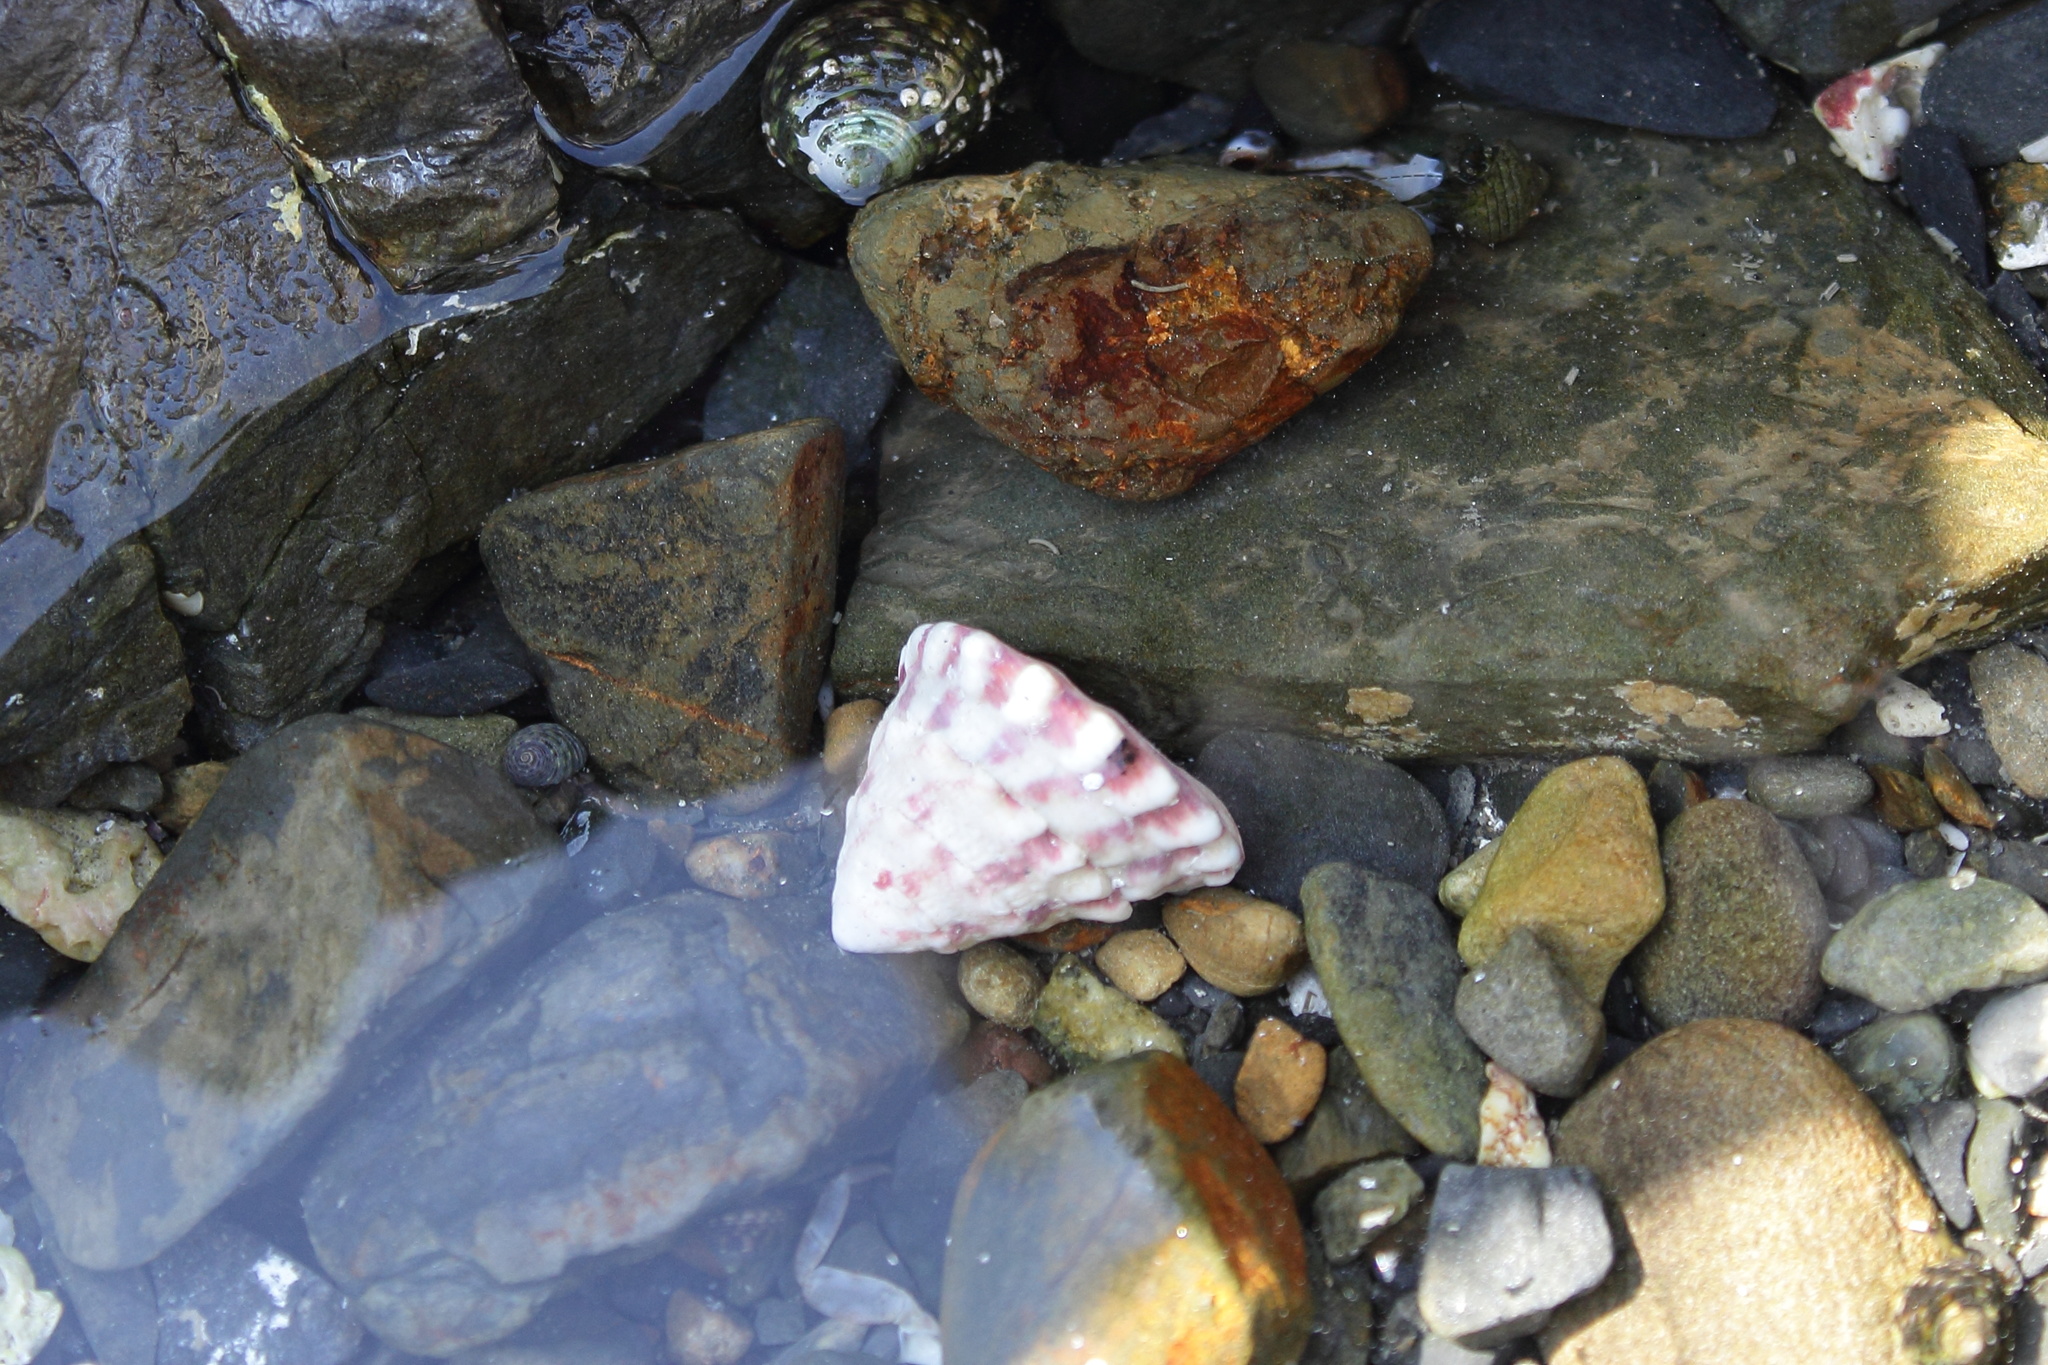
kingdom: Animalia
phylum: Mollusca
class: Gastropoda
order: Trochida
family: Trochidae
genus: Trochus
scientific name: Trochus rota
